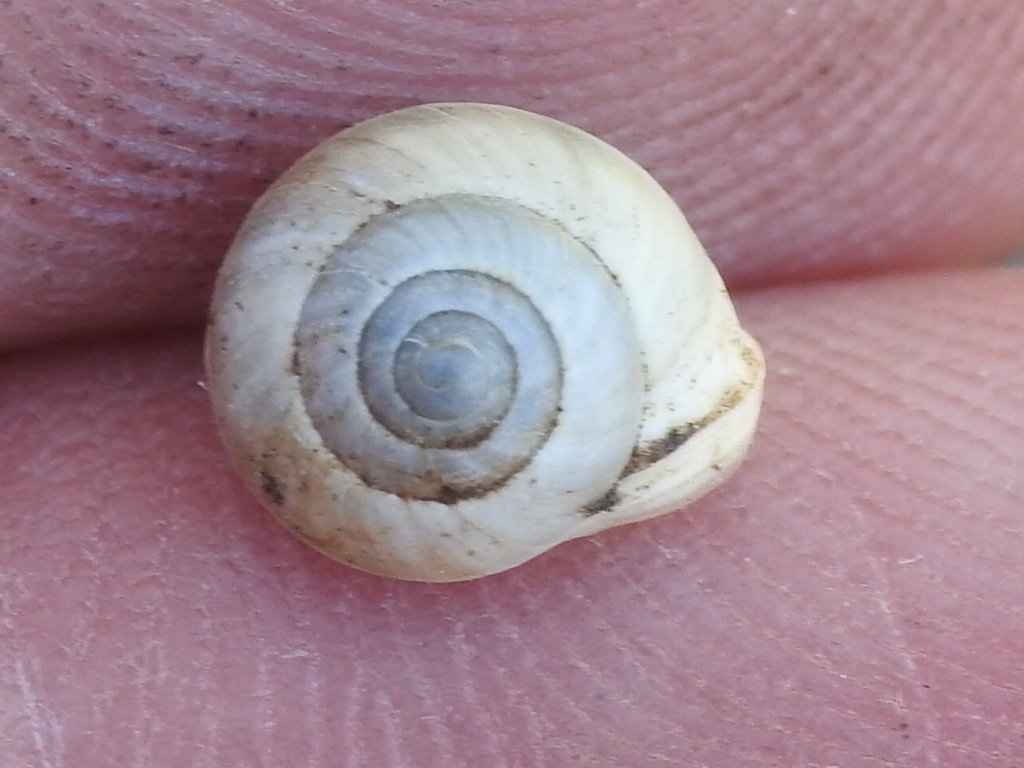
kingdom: Animalia
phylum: Mollusca
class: Gastropoda
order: Cycloneritida
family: Helicinidae
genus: Helicina
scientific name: Helicina orbiculata
